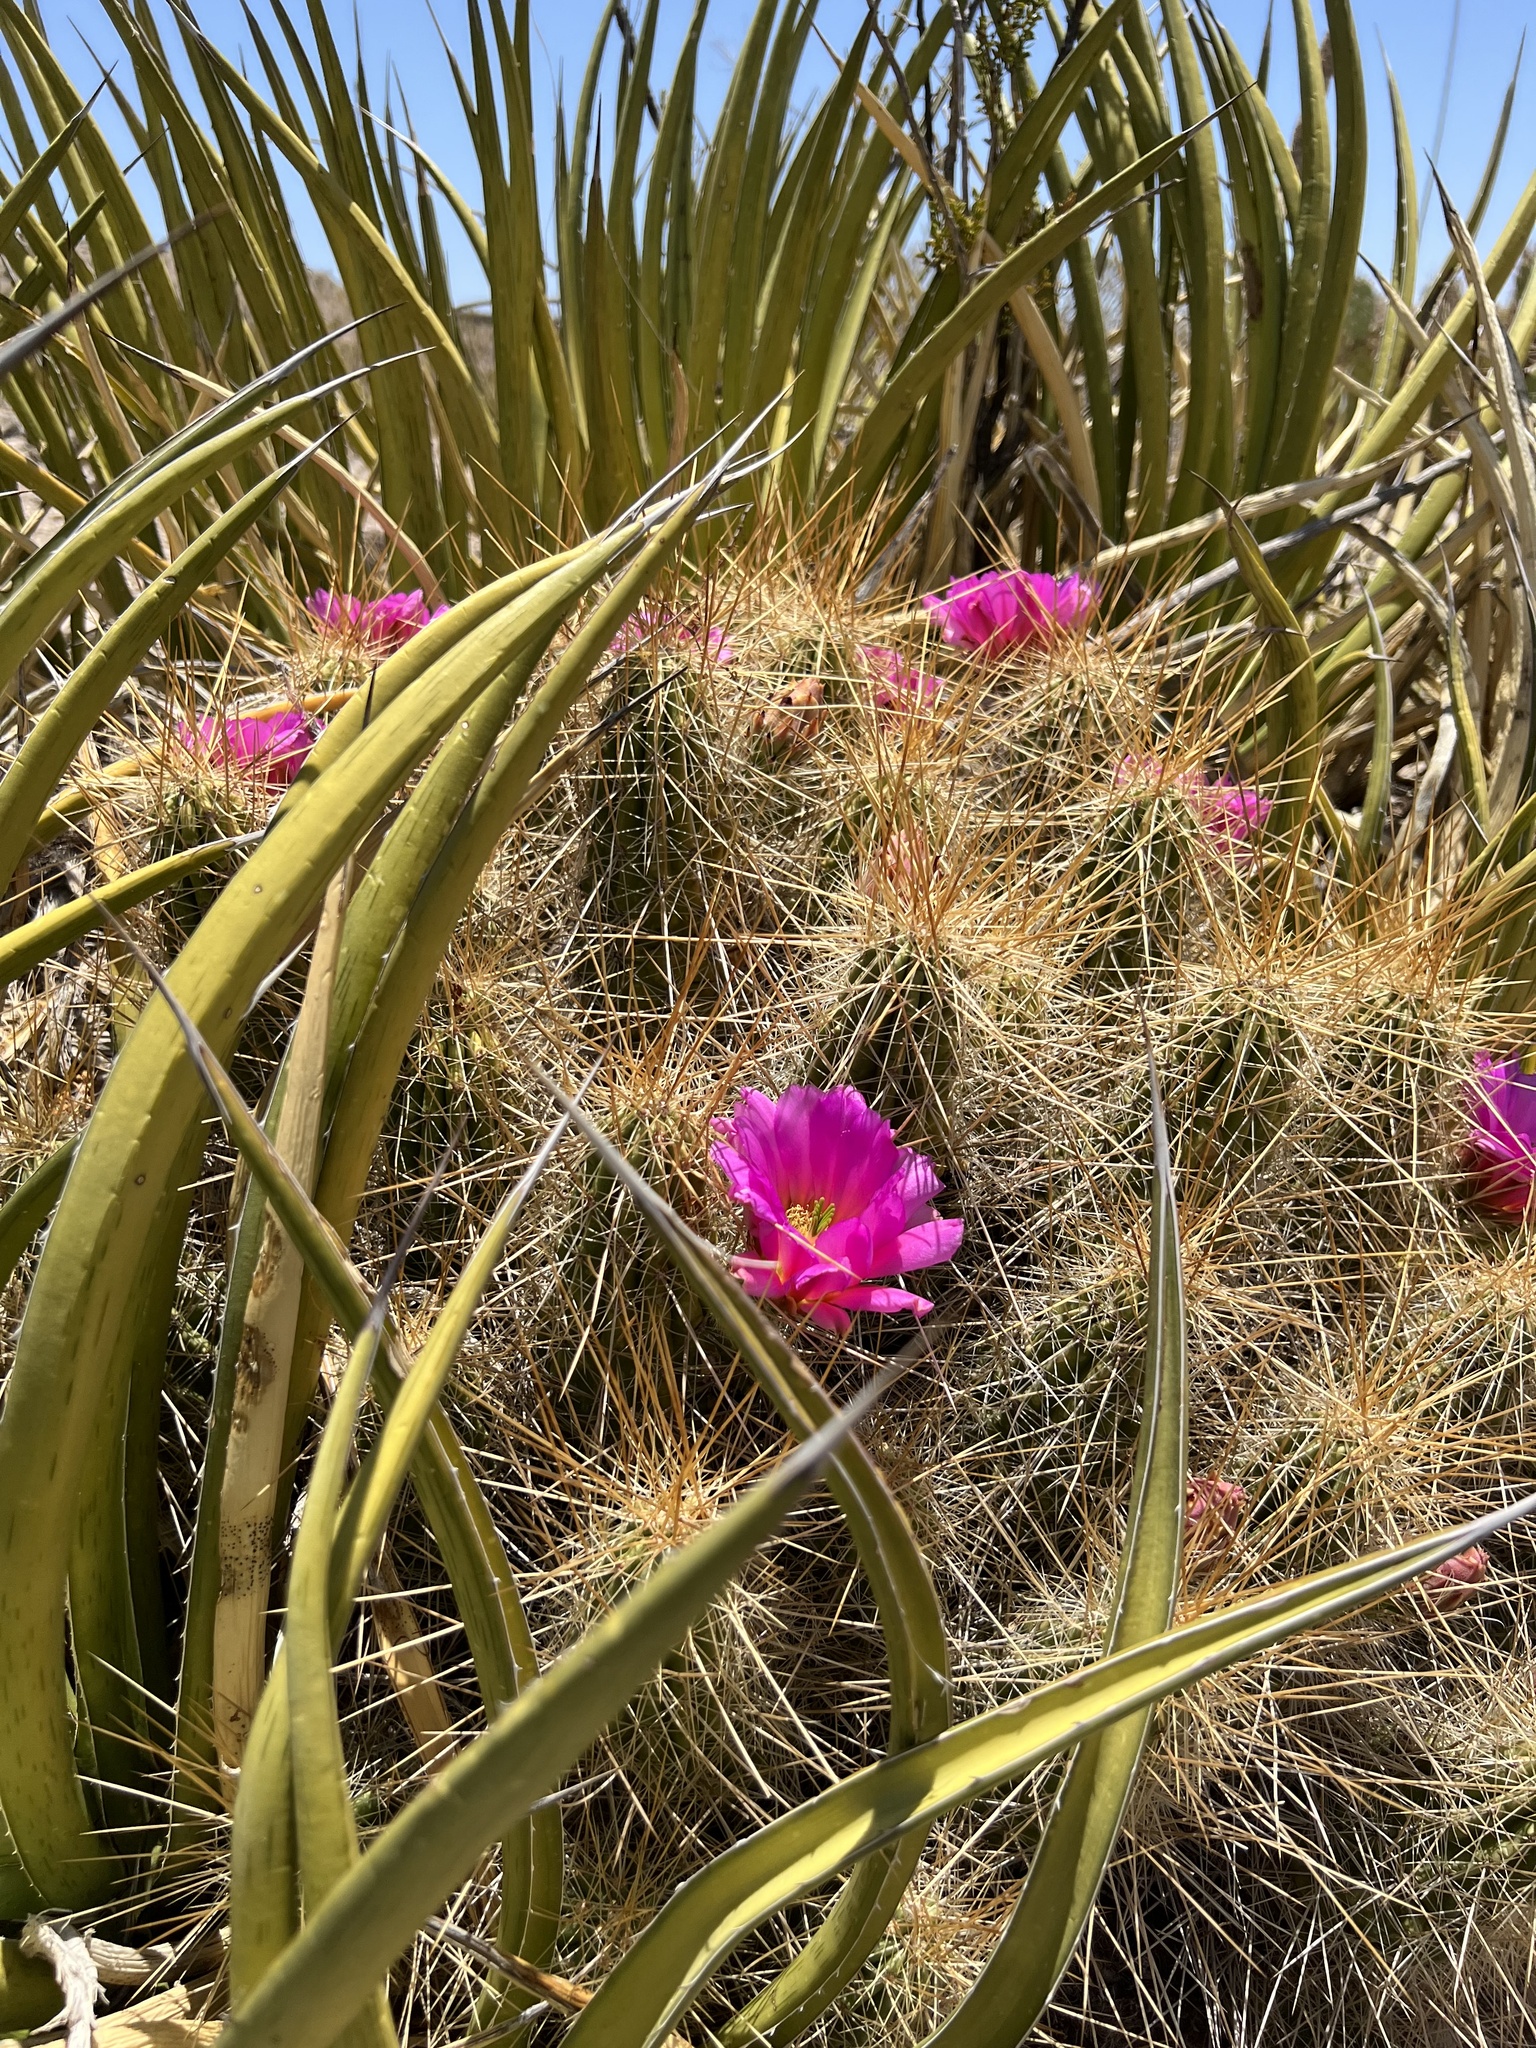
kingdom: Plantae
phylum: Tracheophyta
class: Magnoliopsida
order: Caryophyllales
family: Cactaceae
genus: Echinocereus
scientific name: Echinocereus stramineus
